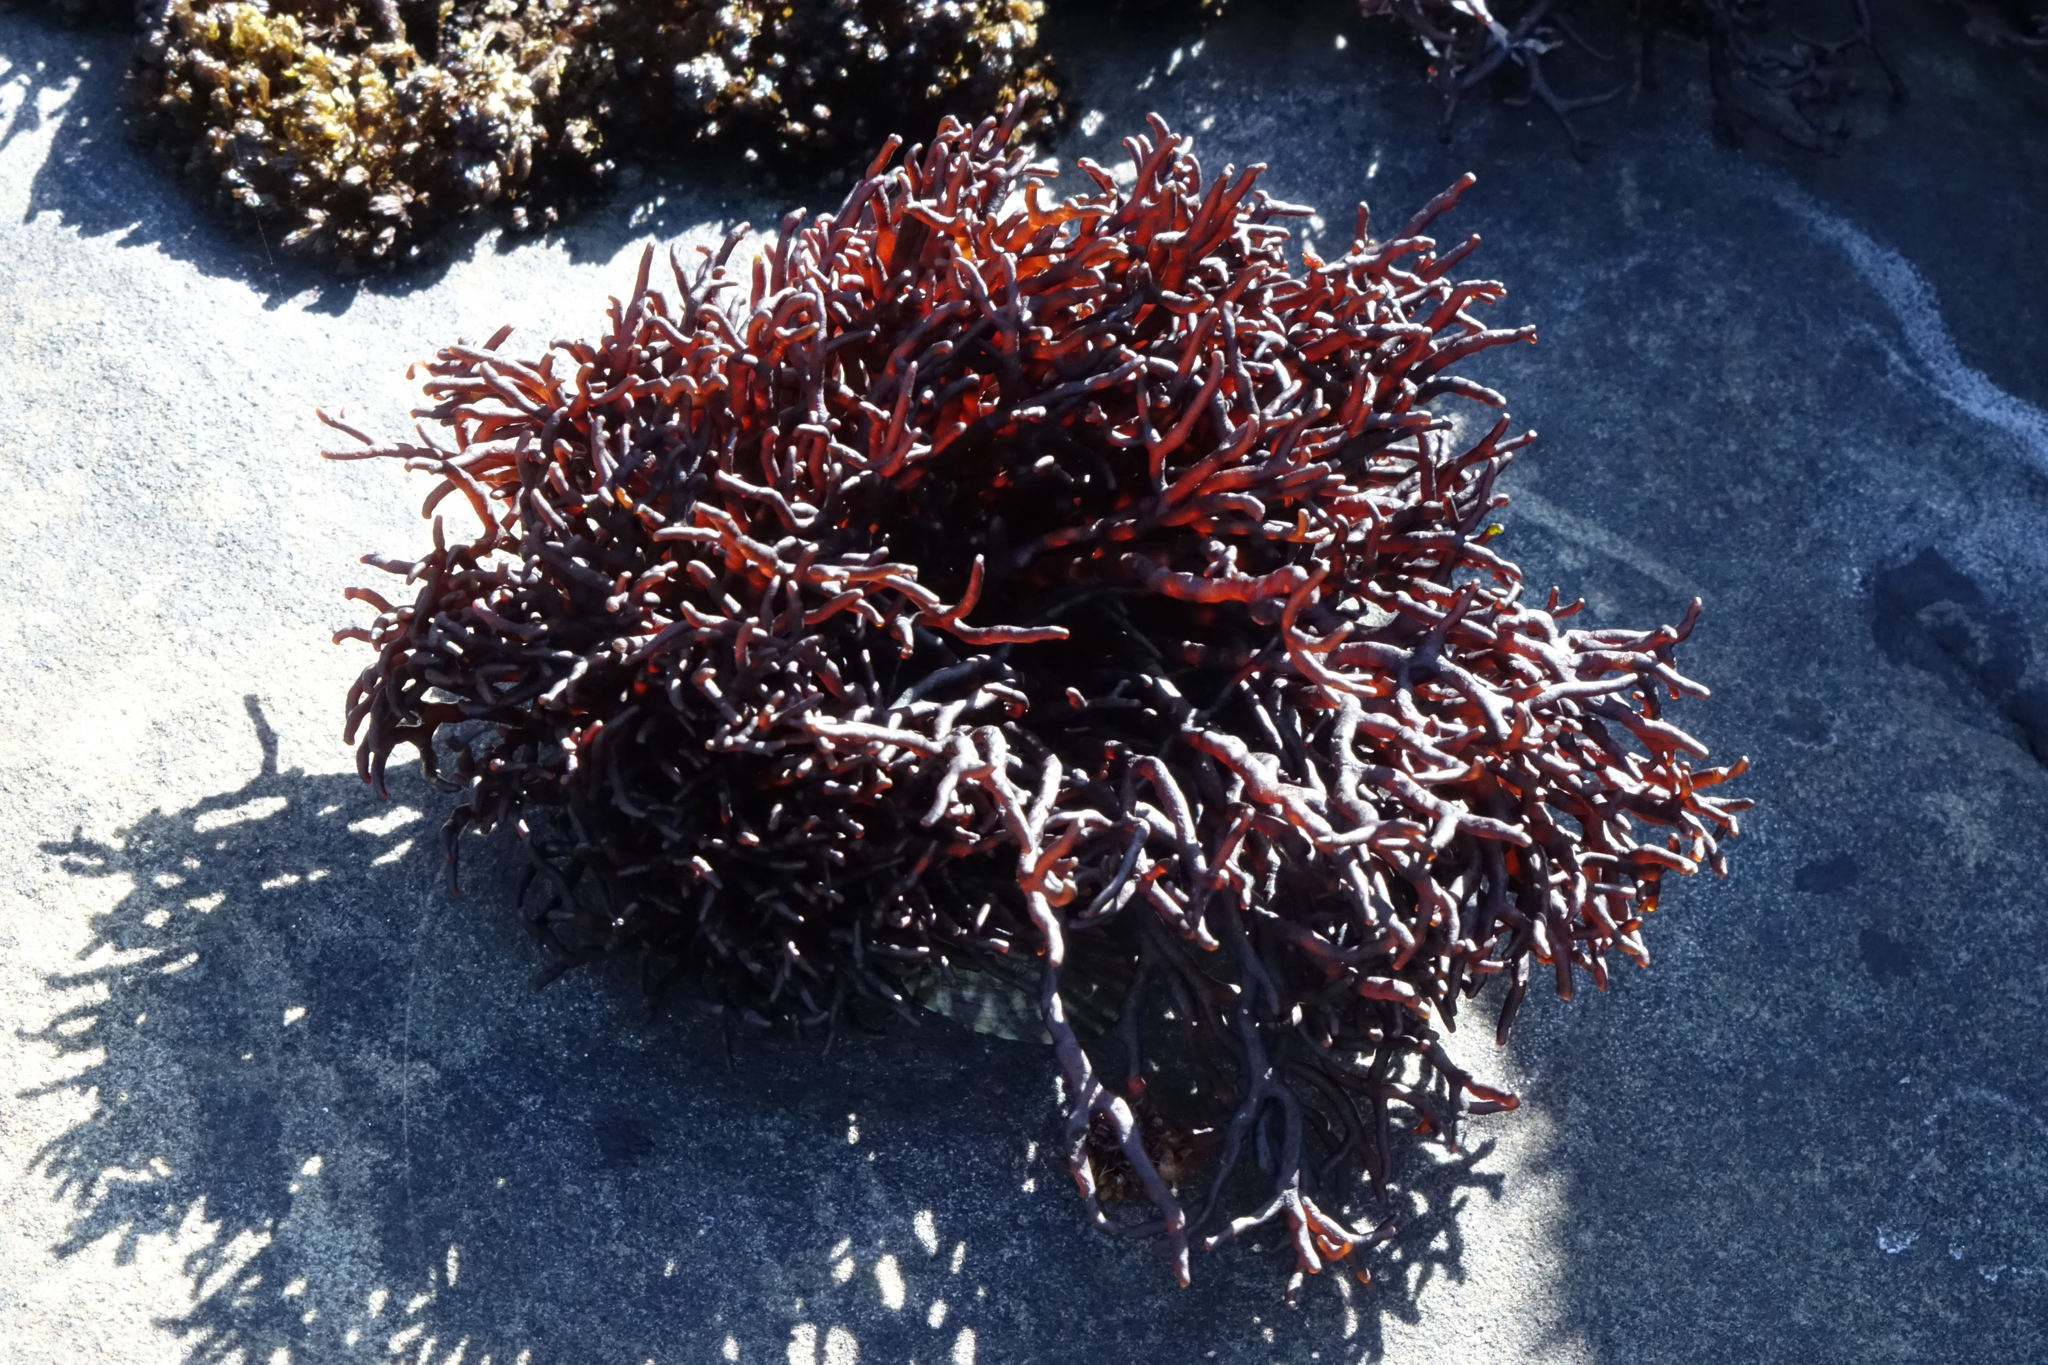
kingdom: Plantae
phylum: Rhodophyta
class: Florideophyceae
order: Hildenbrandiales
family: Hildenbrandiaceae
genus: Apophlaea
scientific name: Apophlaea lyallii
